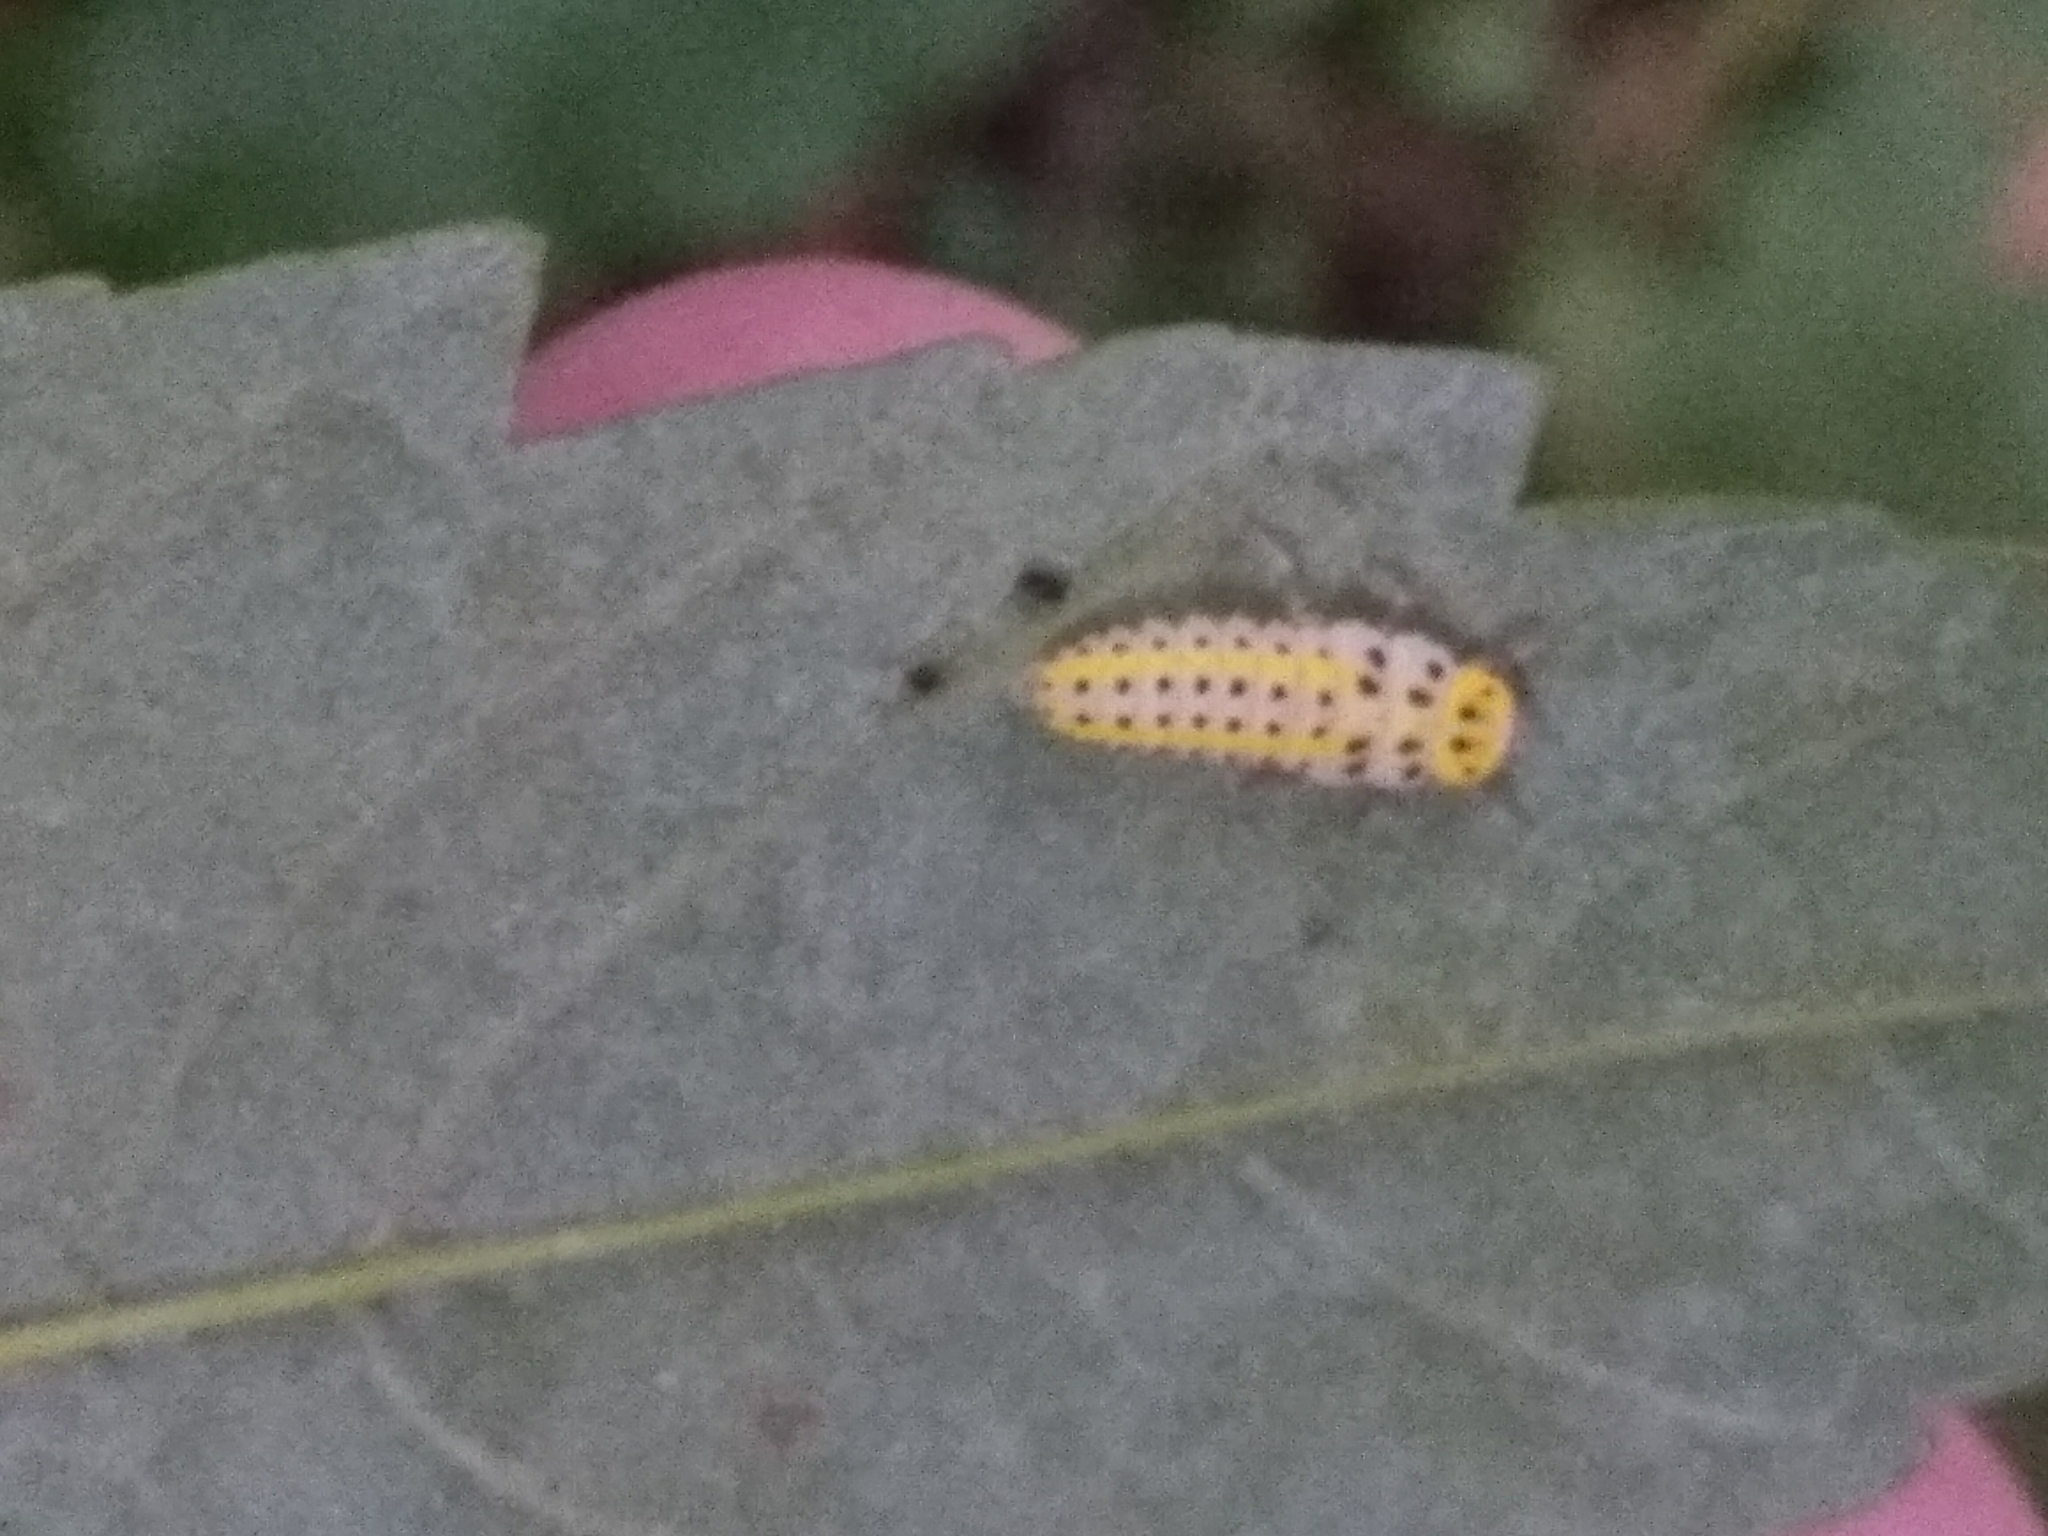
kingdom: Animalia
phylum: Arthropoda
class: Insecta
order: Coleoptera
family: Coccinellidae
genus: Halyzia
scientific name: Halyzia sedecimguttata
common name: Orange ladybird
